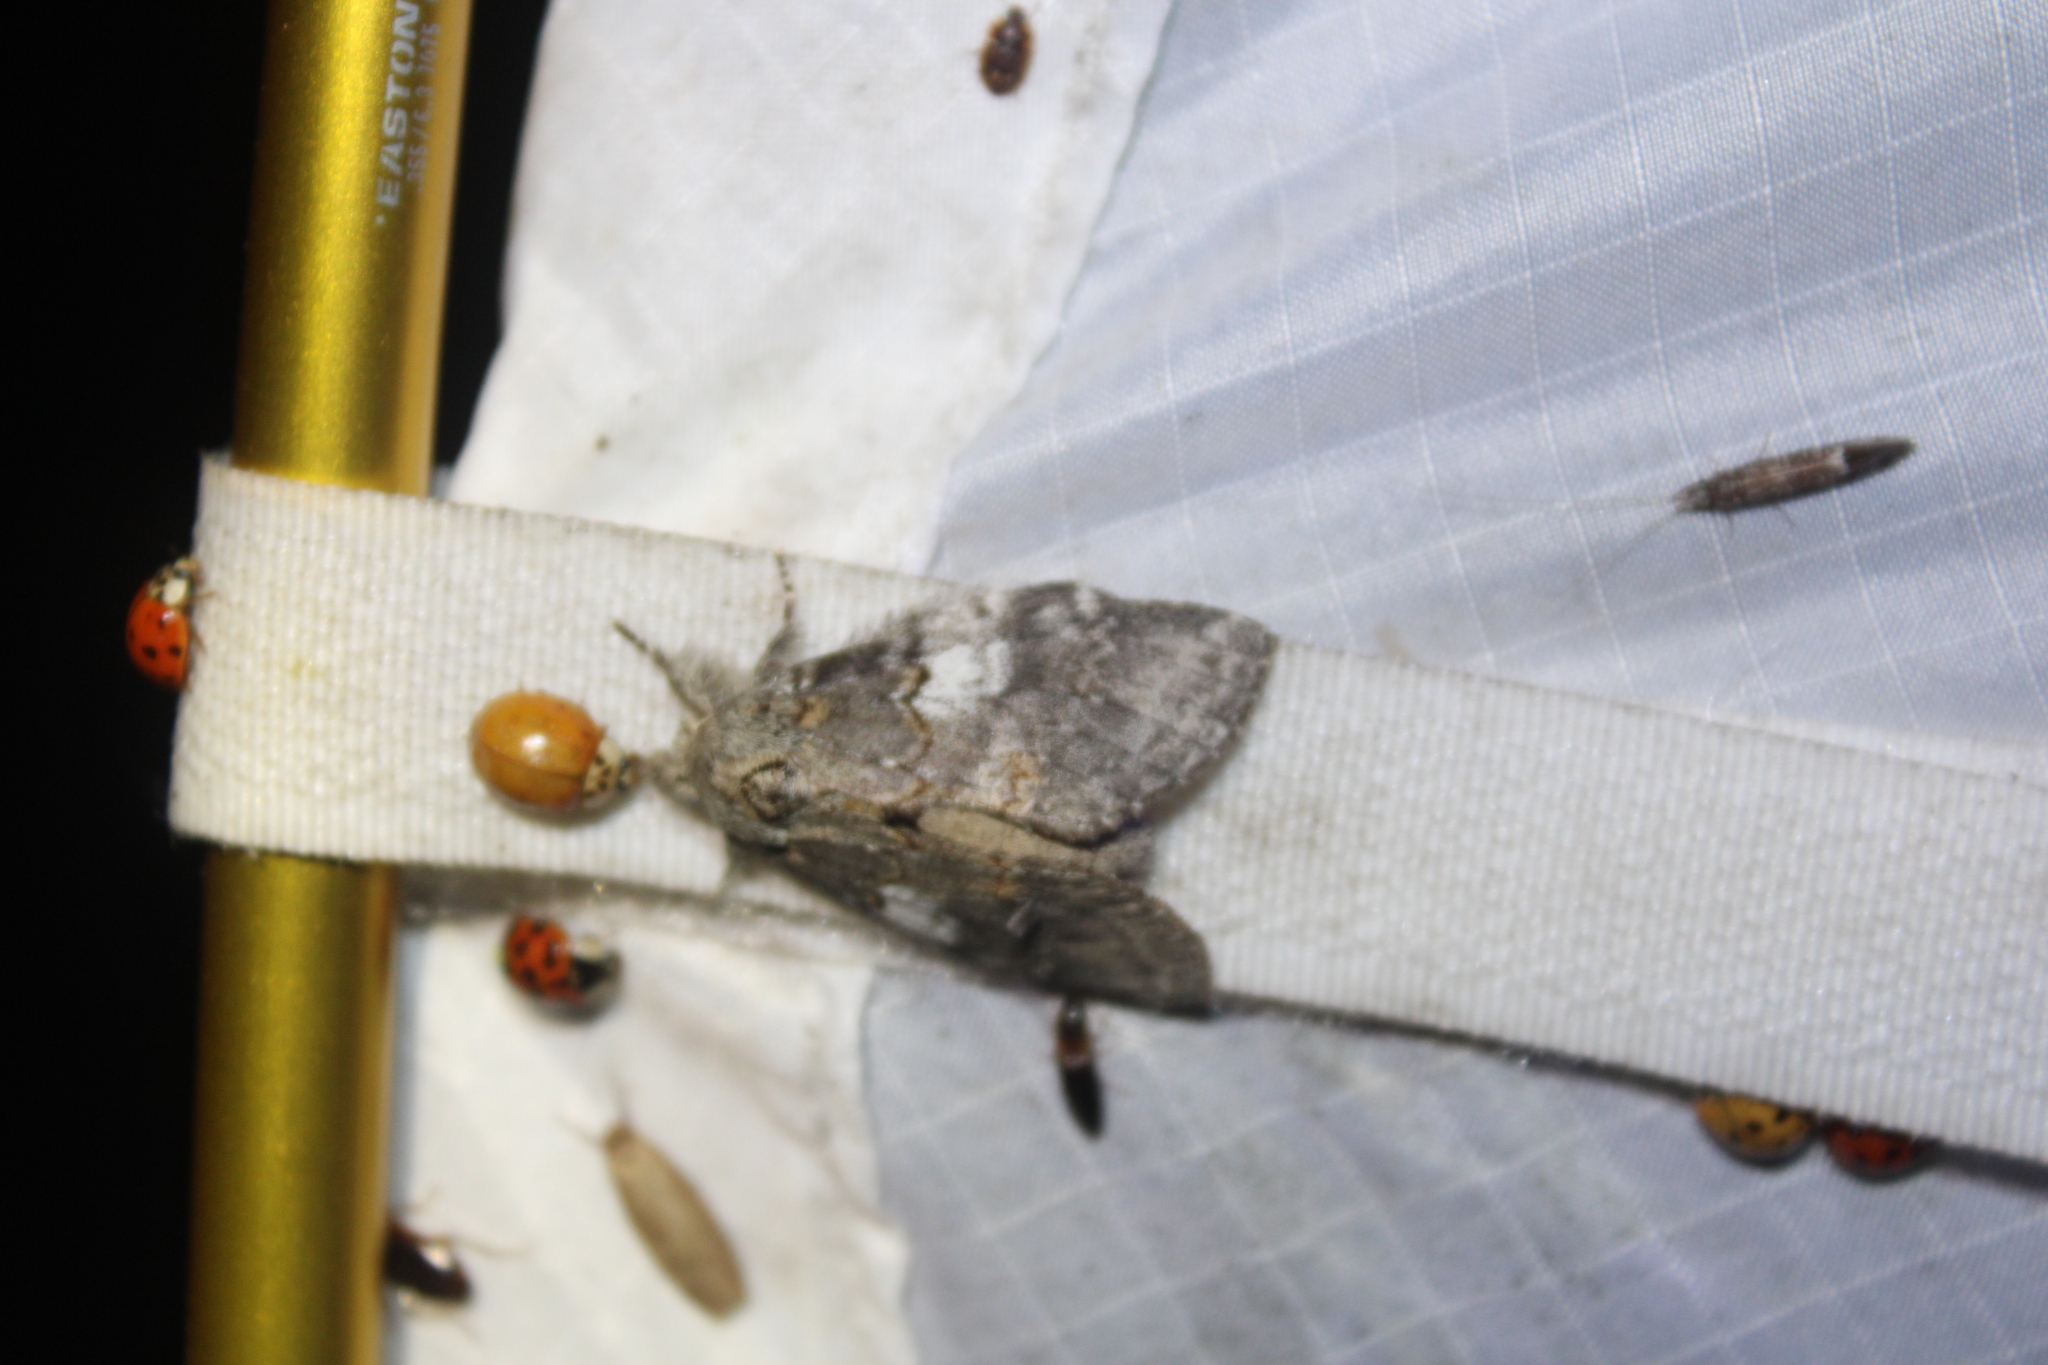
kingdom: Animalia
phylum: Arthropoda
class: Insecta
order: Lepidoptera
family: Notodontidae
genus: Peridea
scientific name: Peridea angulosa
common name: Angulose prominent
